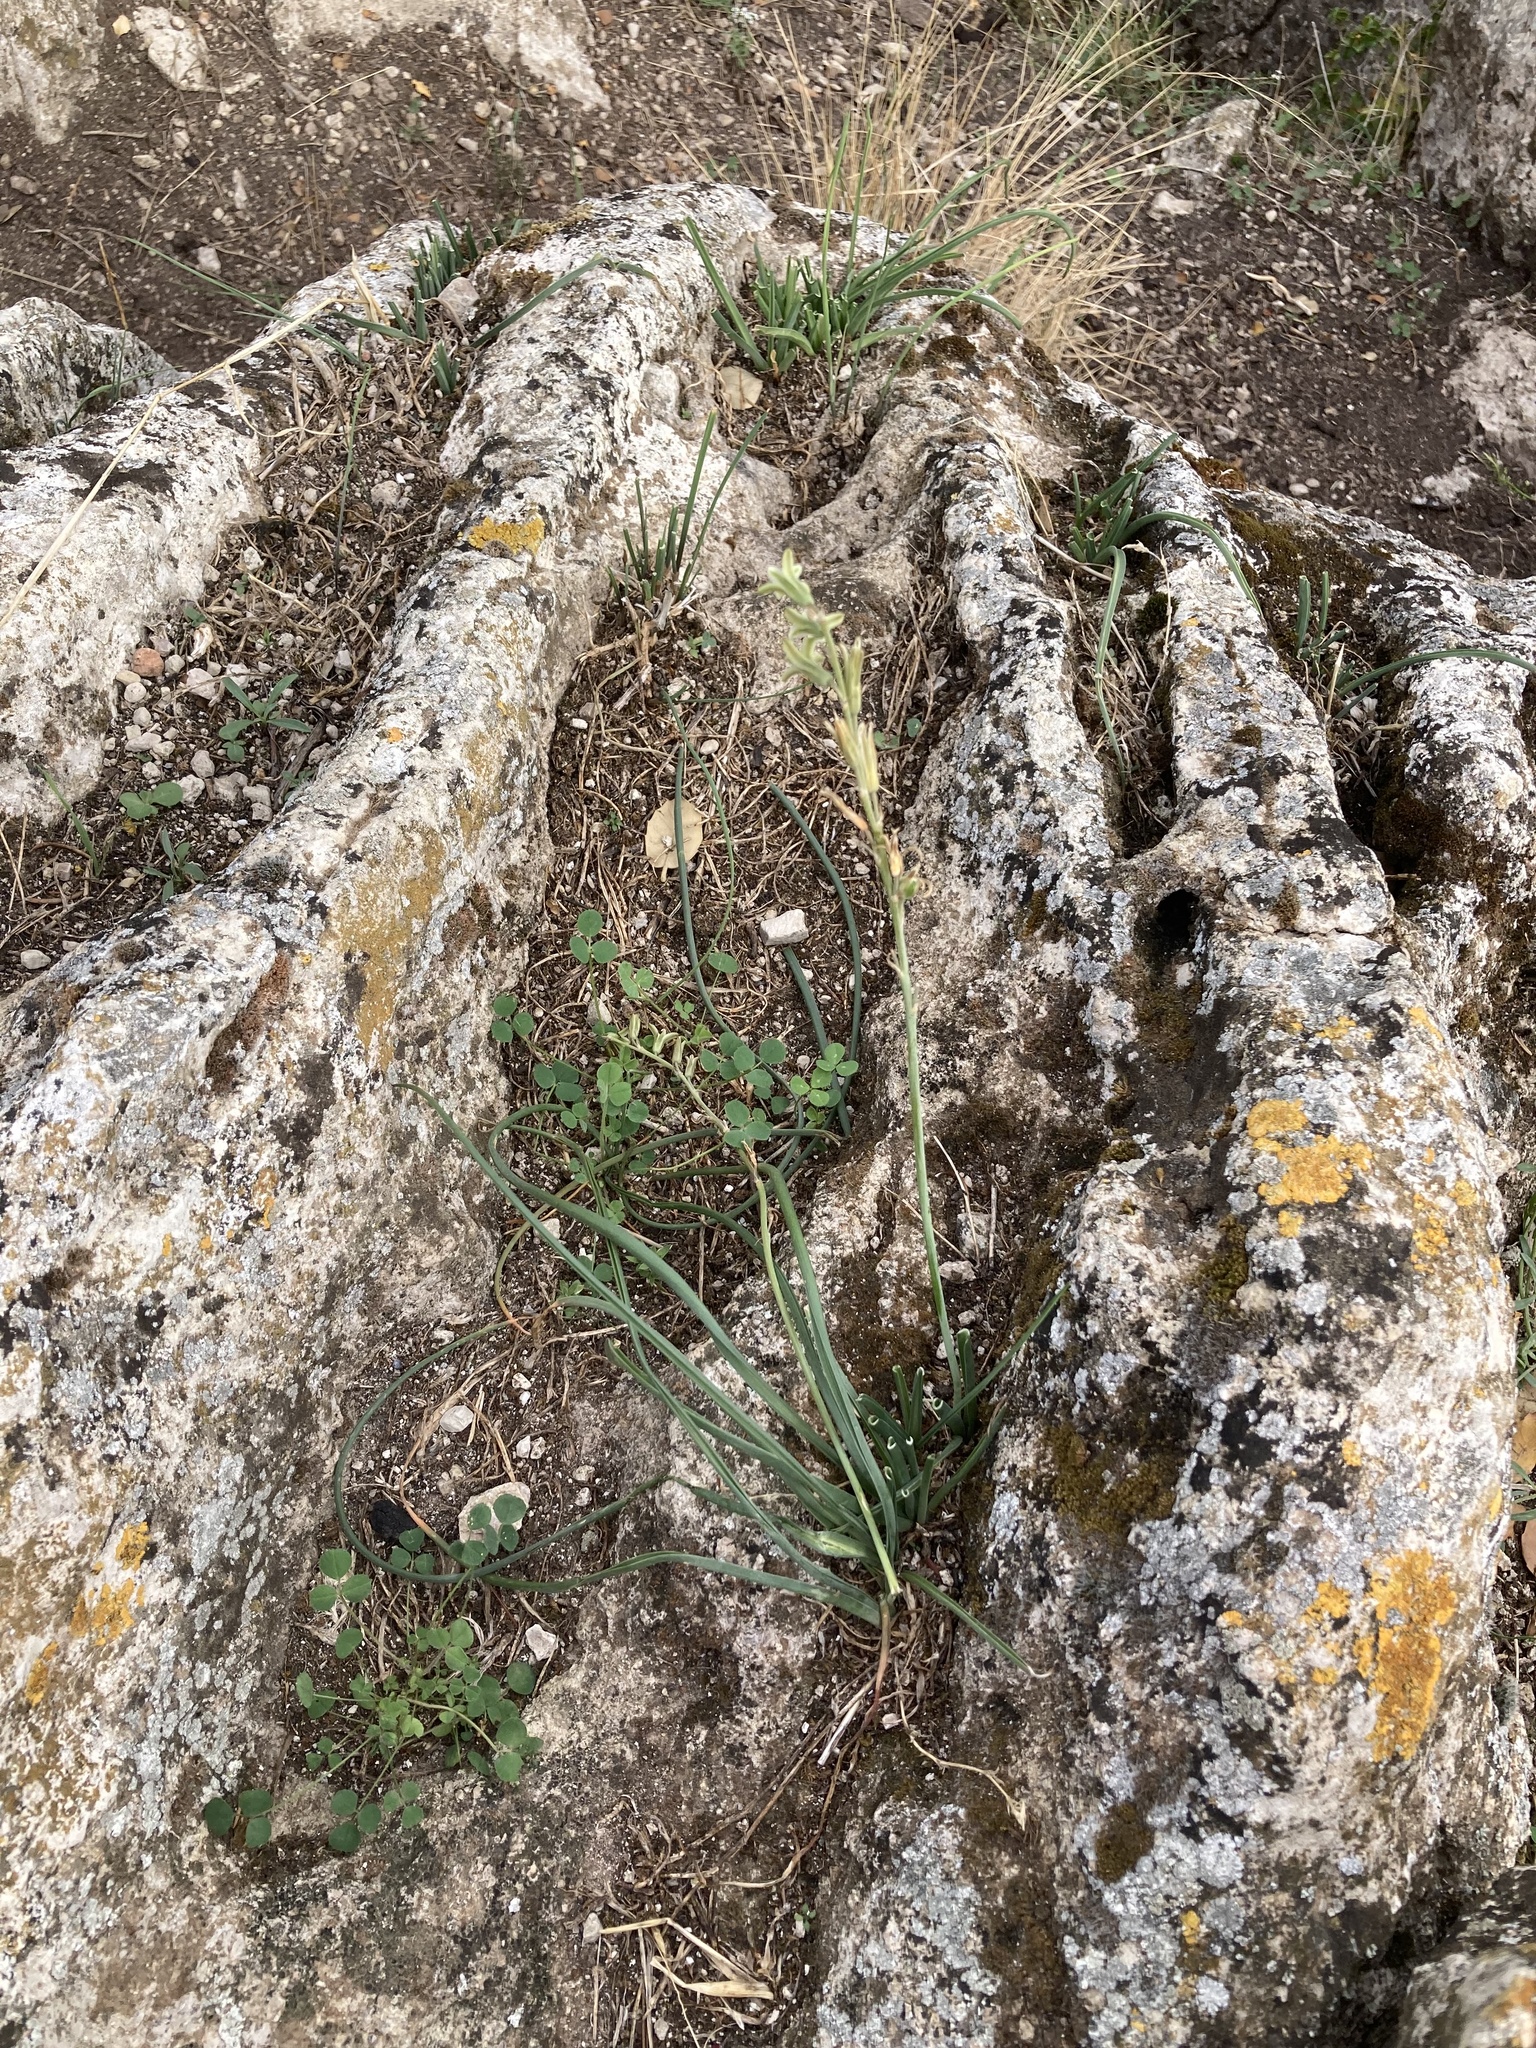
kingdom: Plantae
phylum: Tracheophyta
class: Liliopsida
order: Asparagales
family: Asparagaceae
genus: Dipcadi
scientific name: Dipcadi serotinum
